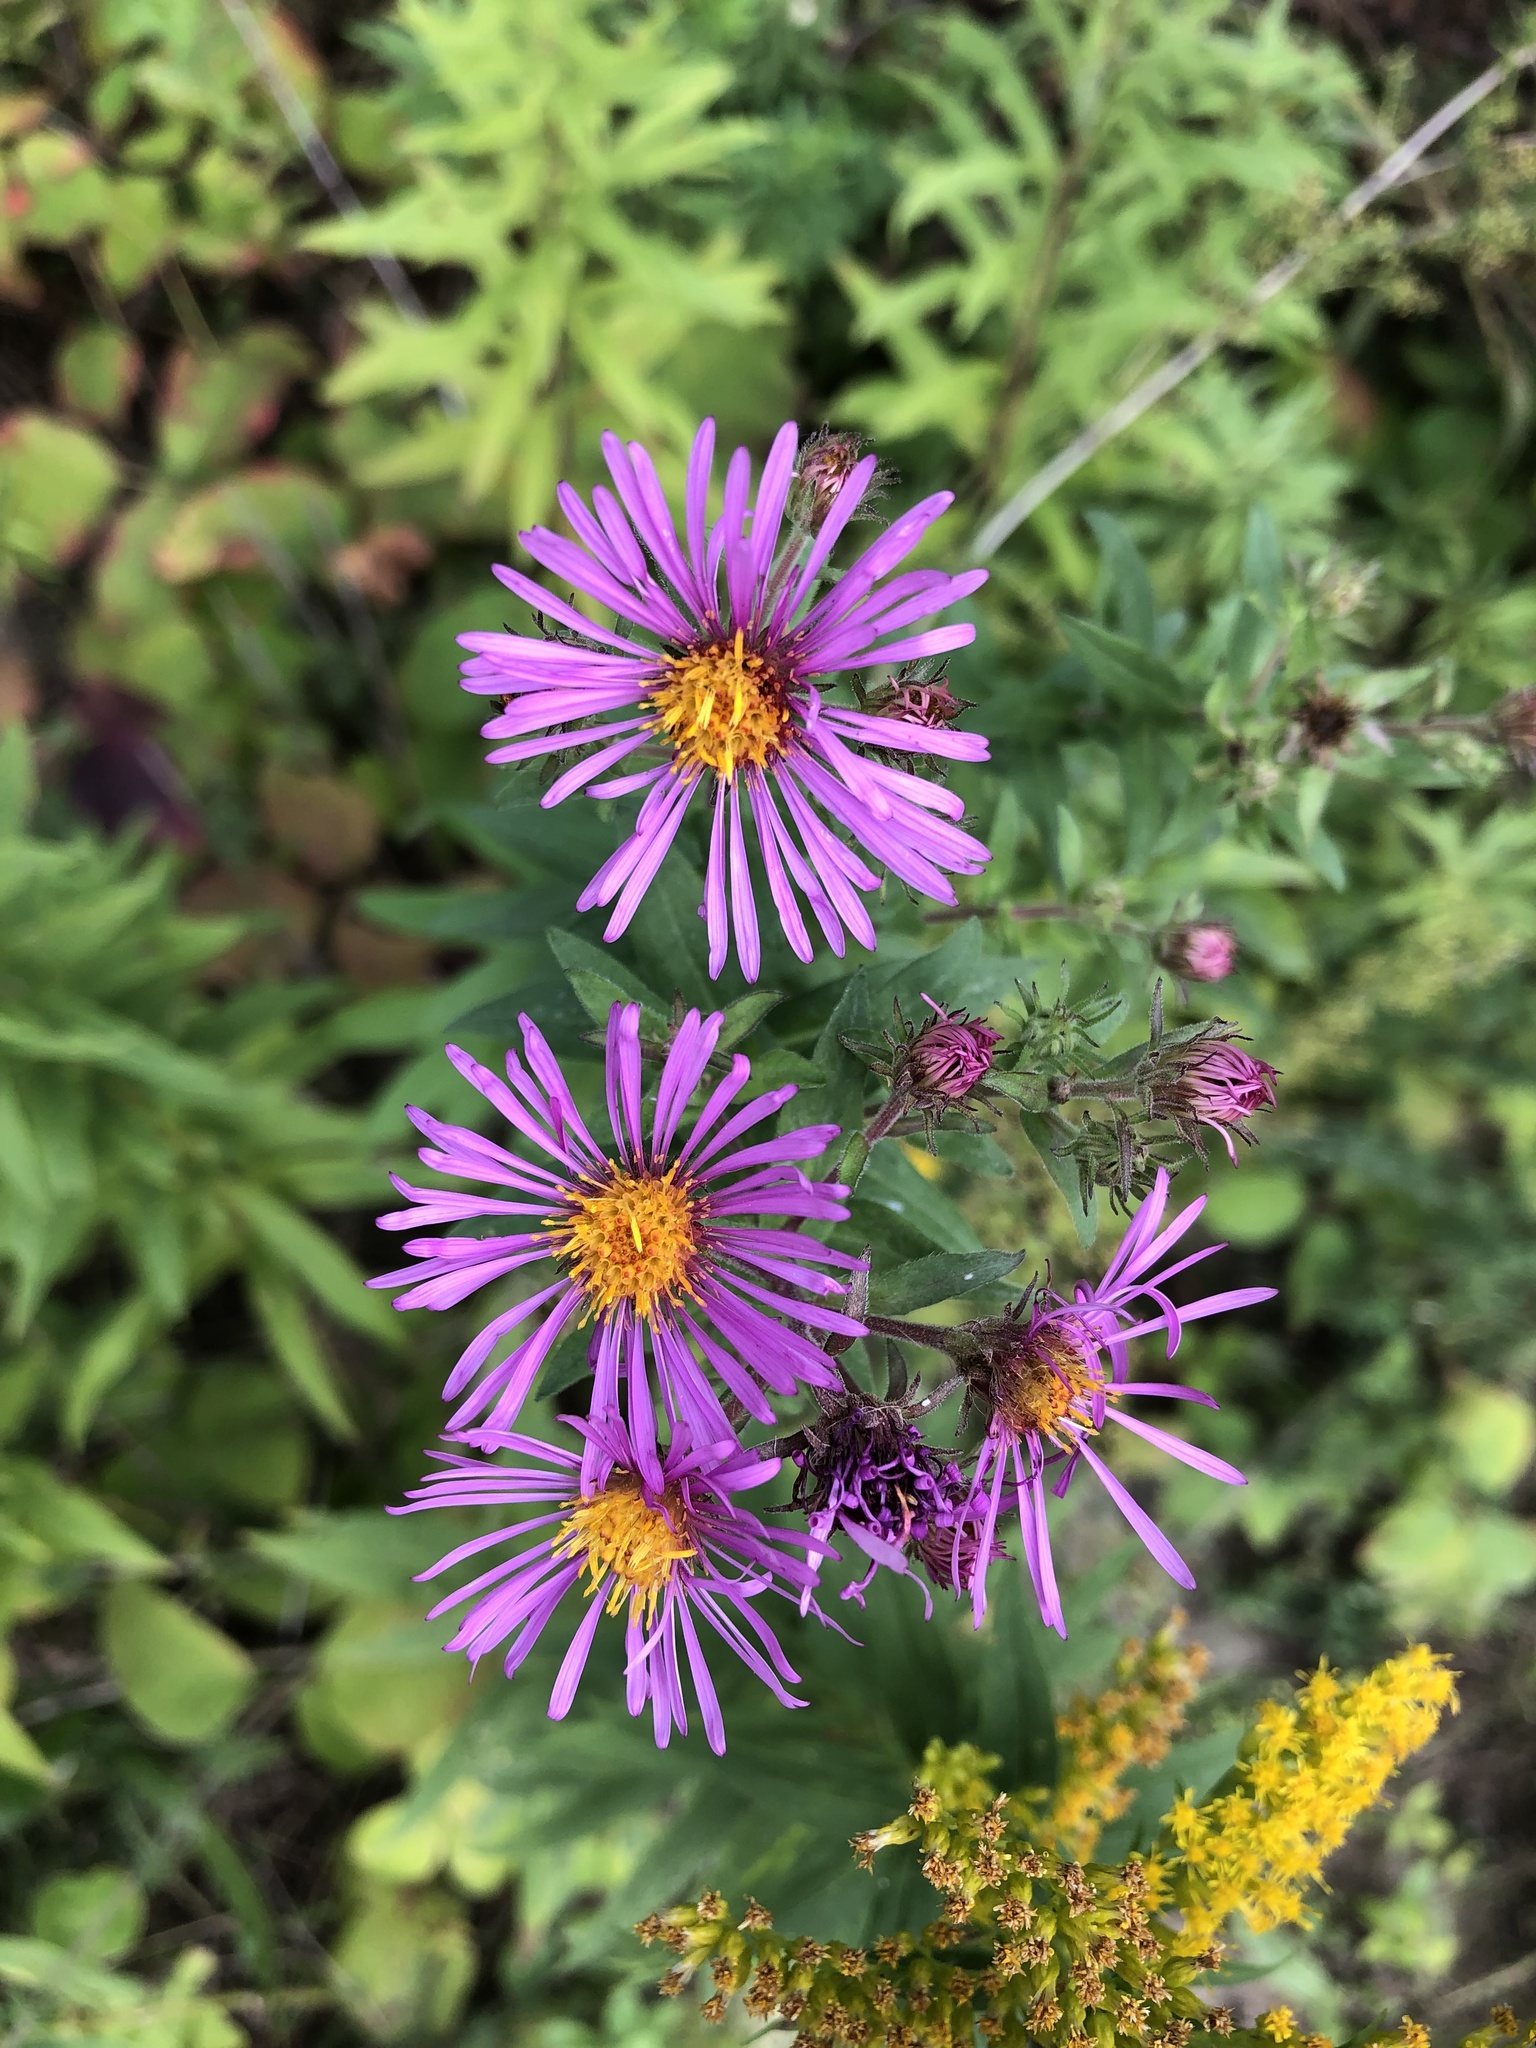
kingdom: Plantae
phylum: Tracheophyta
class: Magnoliopsida
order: Asterales
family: Asteraceae
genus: Symphyotrichum
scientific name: Symphyotrichum novae-angliae
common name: Michaelmas daisy
